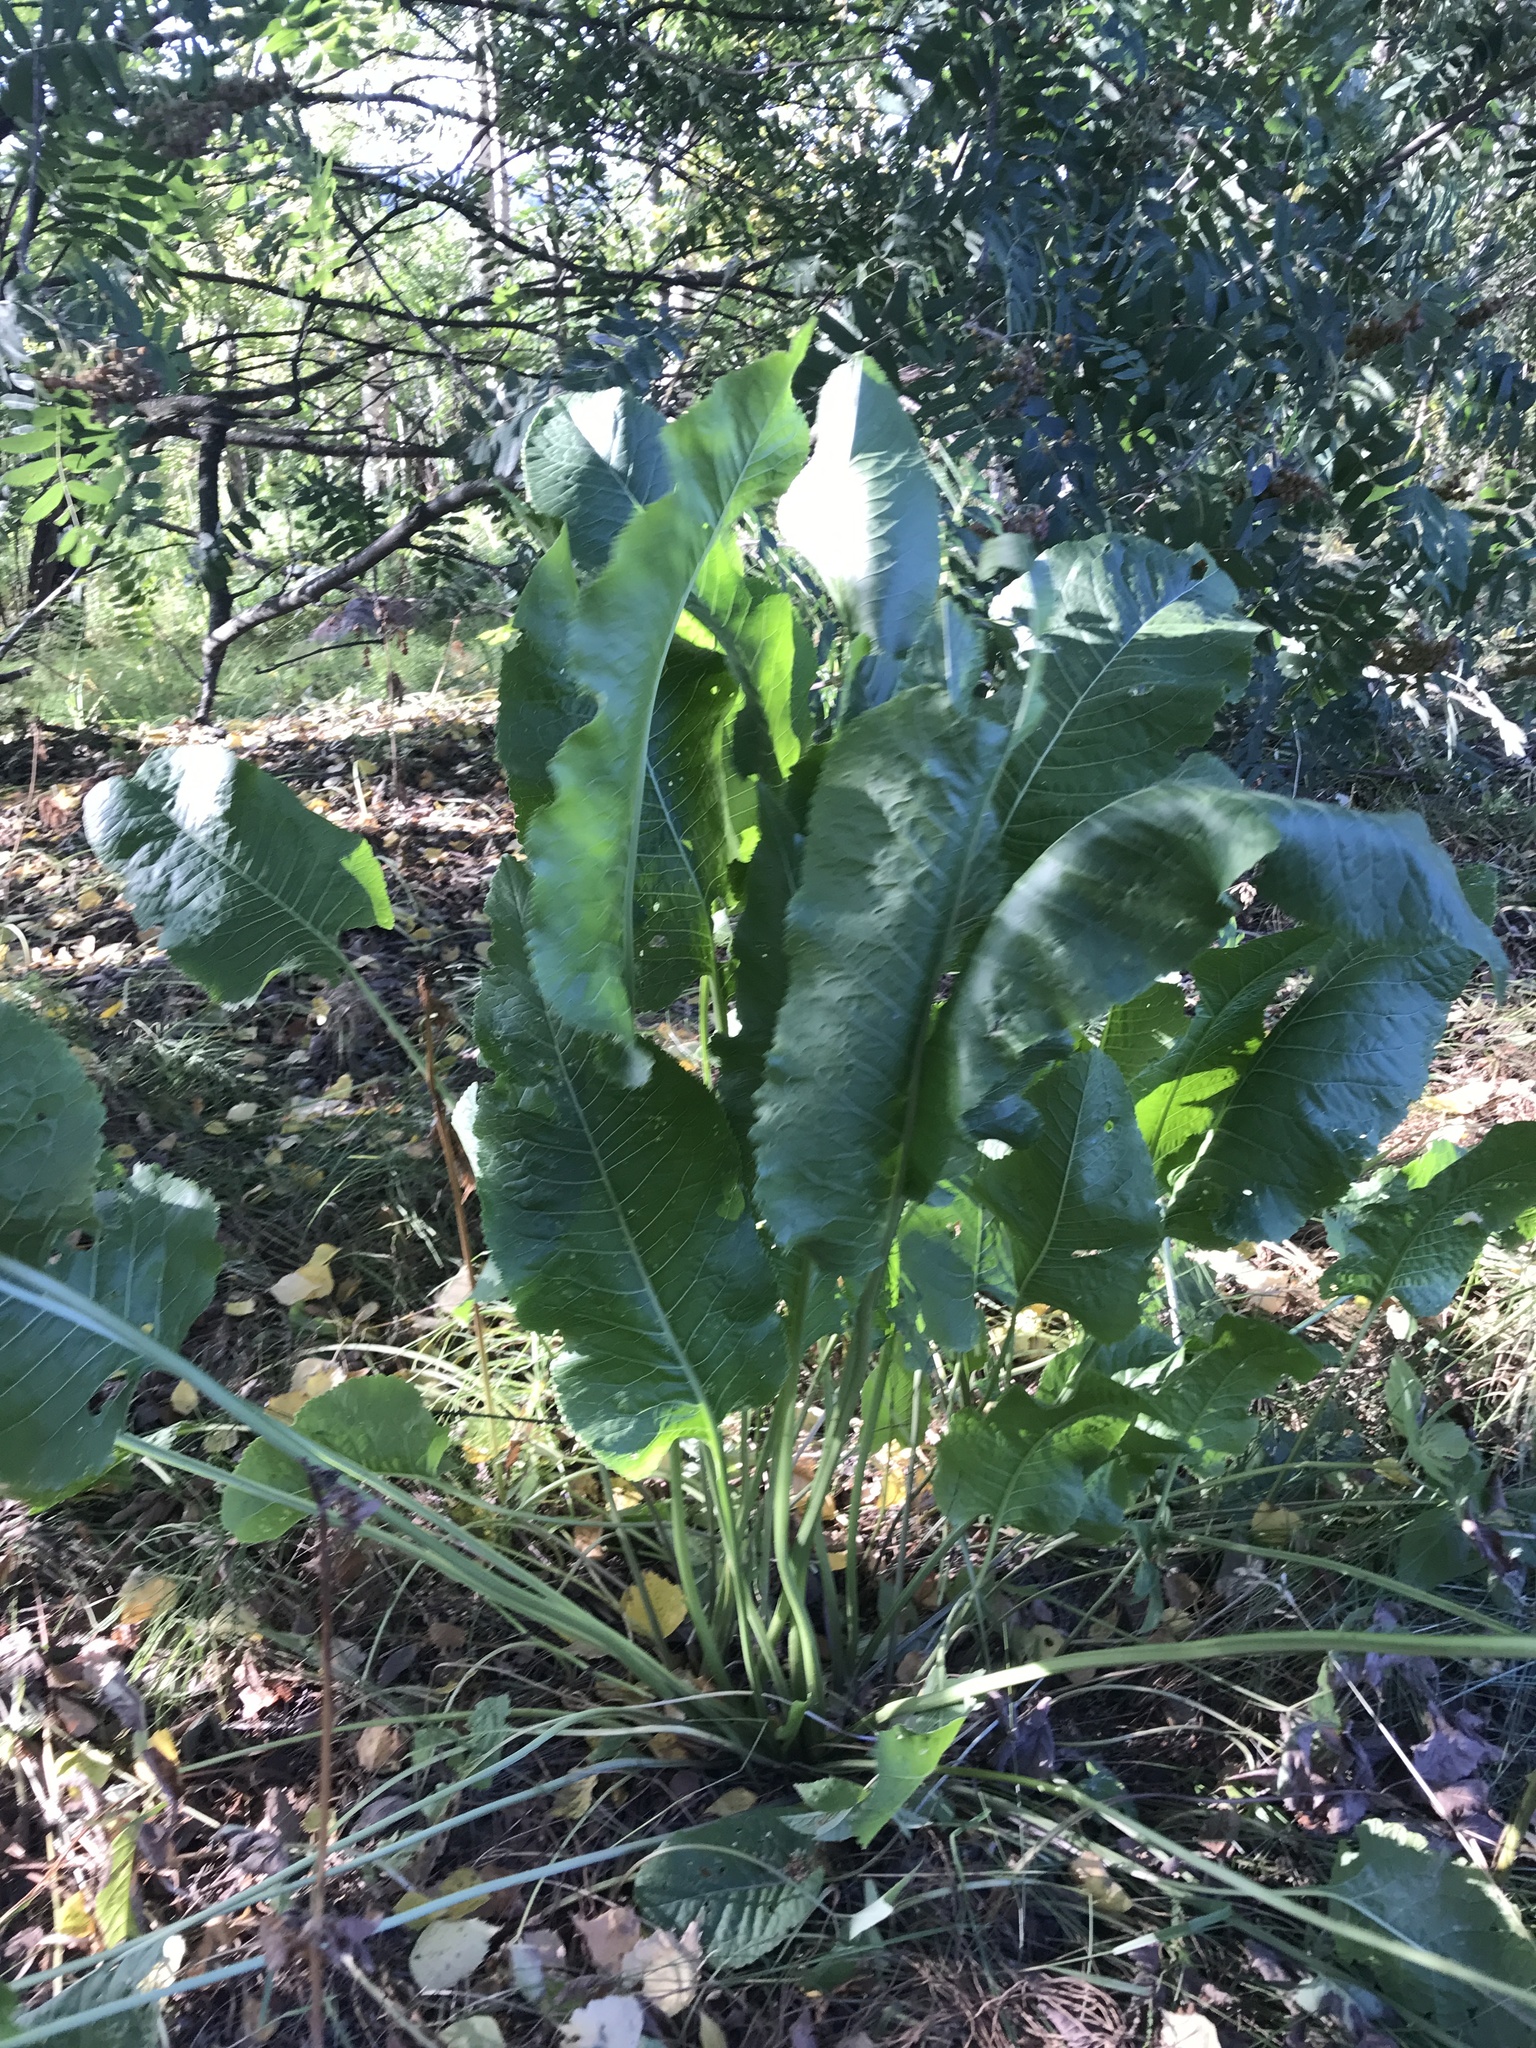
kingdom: Plantae
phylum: Tracheophyta
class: Magnoliopsida
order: Brassicales
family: Brassicaceae
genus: Armoracia
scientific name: Armoracia rusticana
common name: Horseradish
